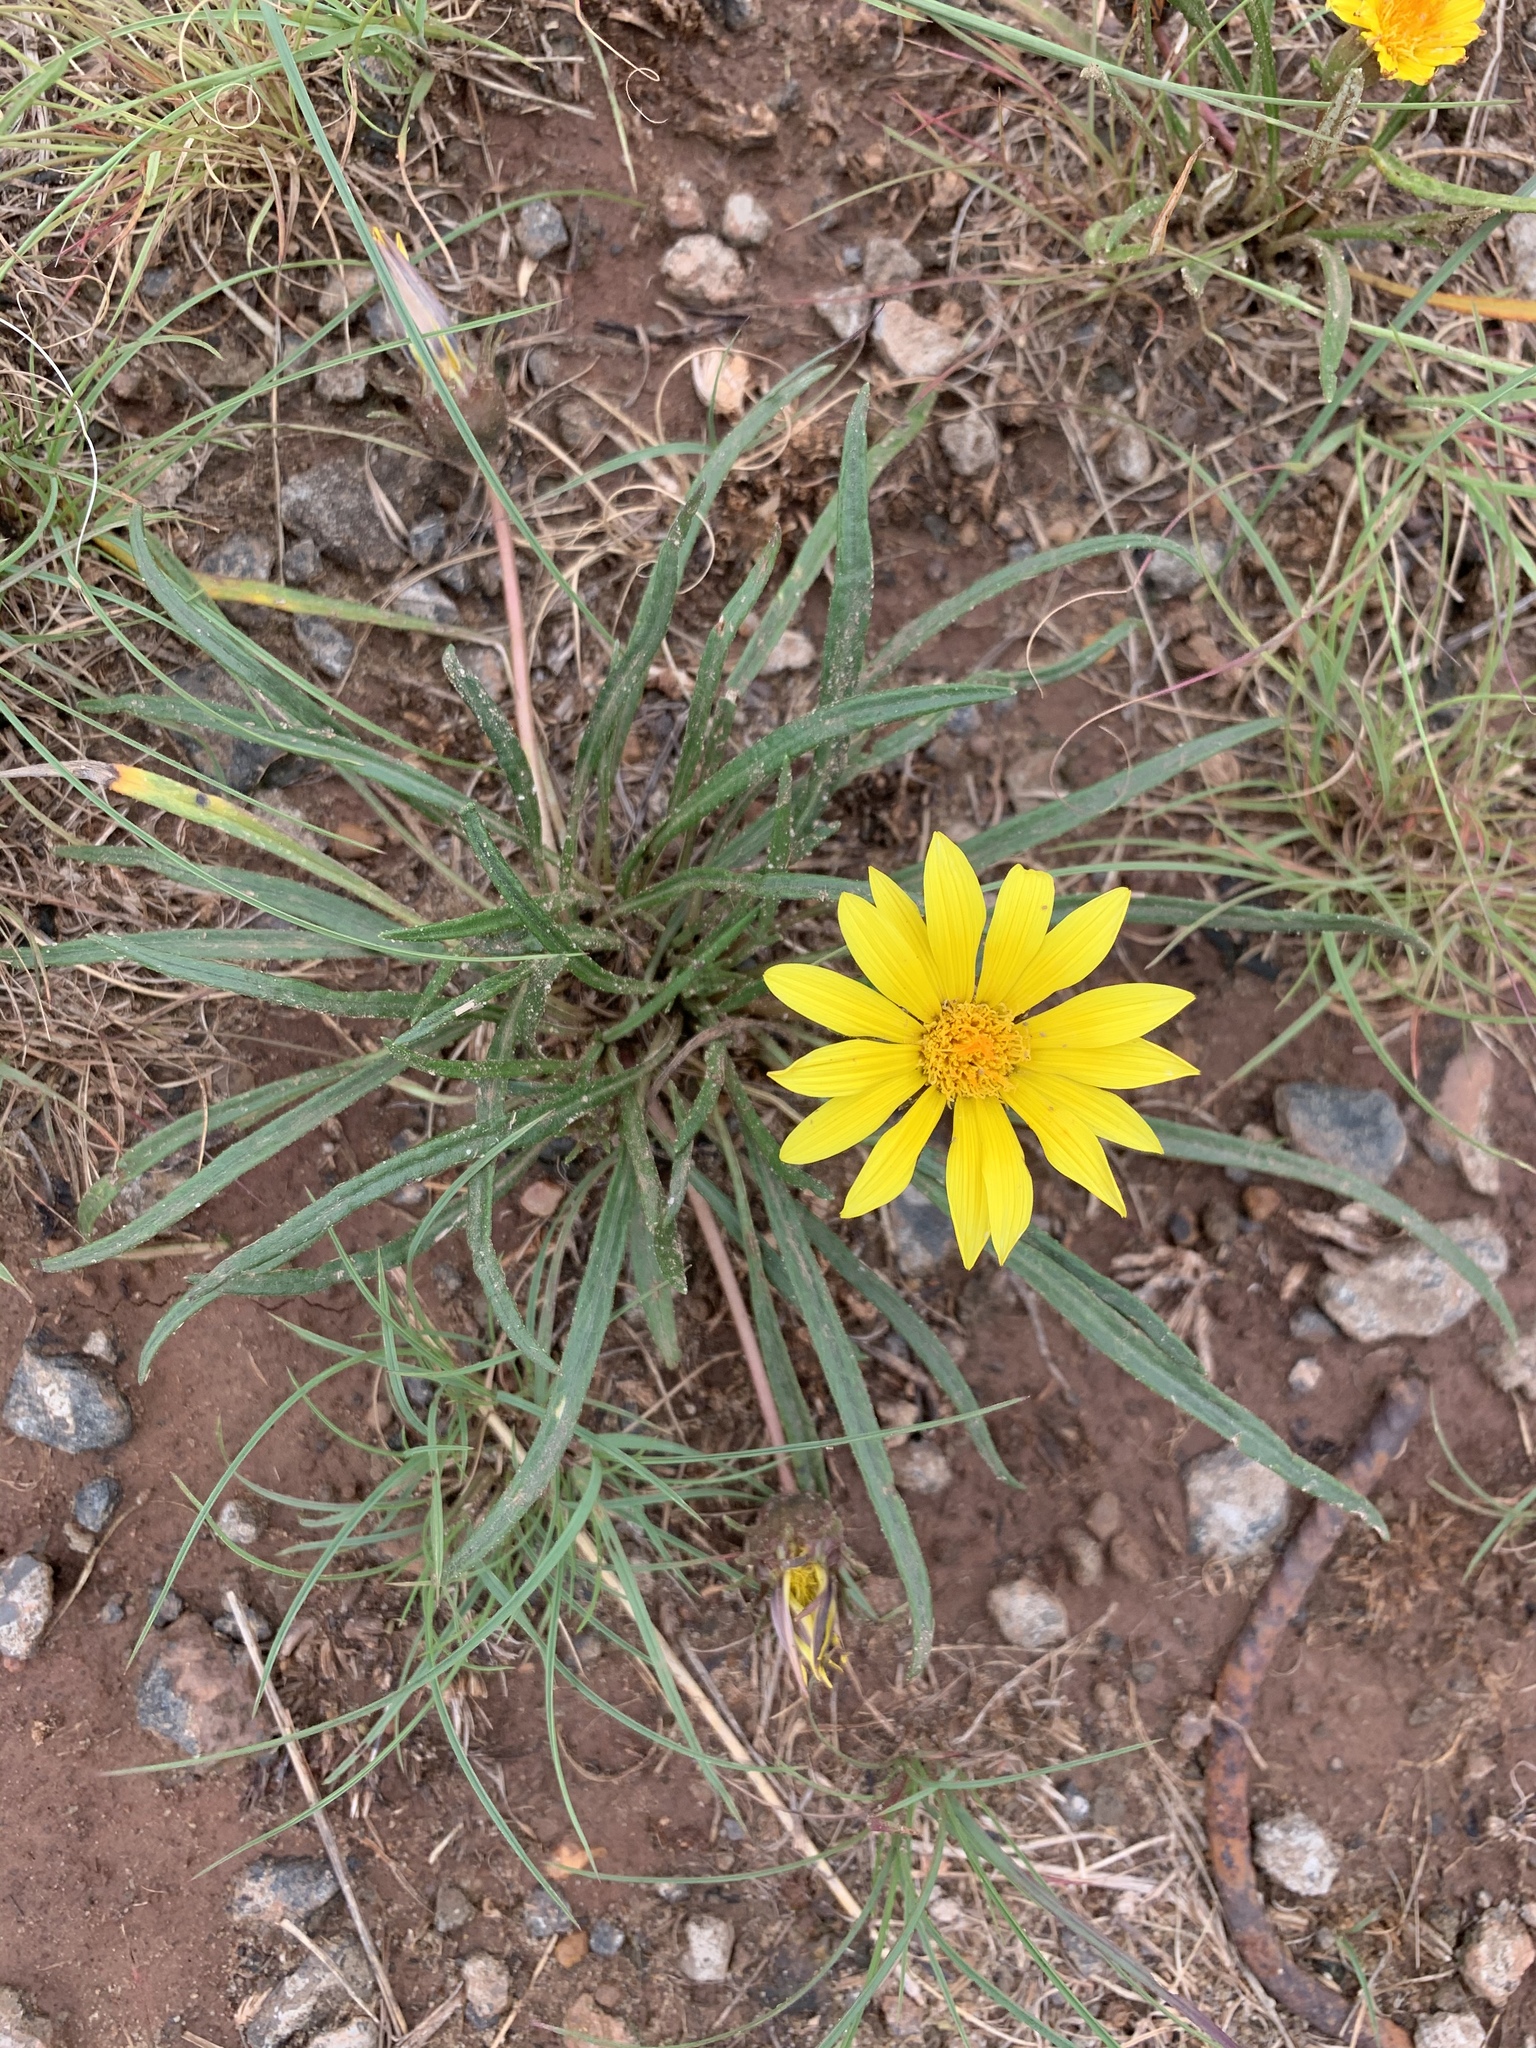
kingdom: Plantae
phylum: Tracheophyta
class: Magnoliopsida
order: Asterales
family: Asteraceae
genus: Gazania
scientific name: Gazania krebsiana
